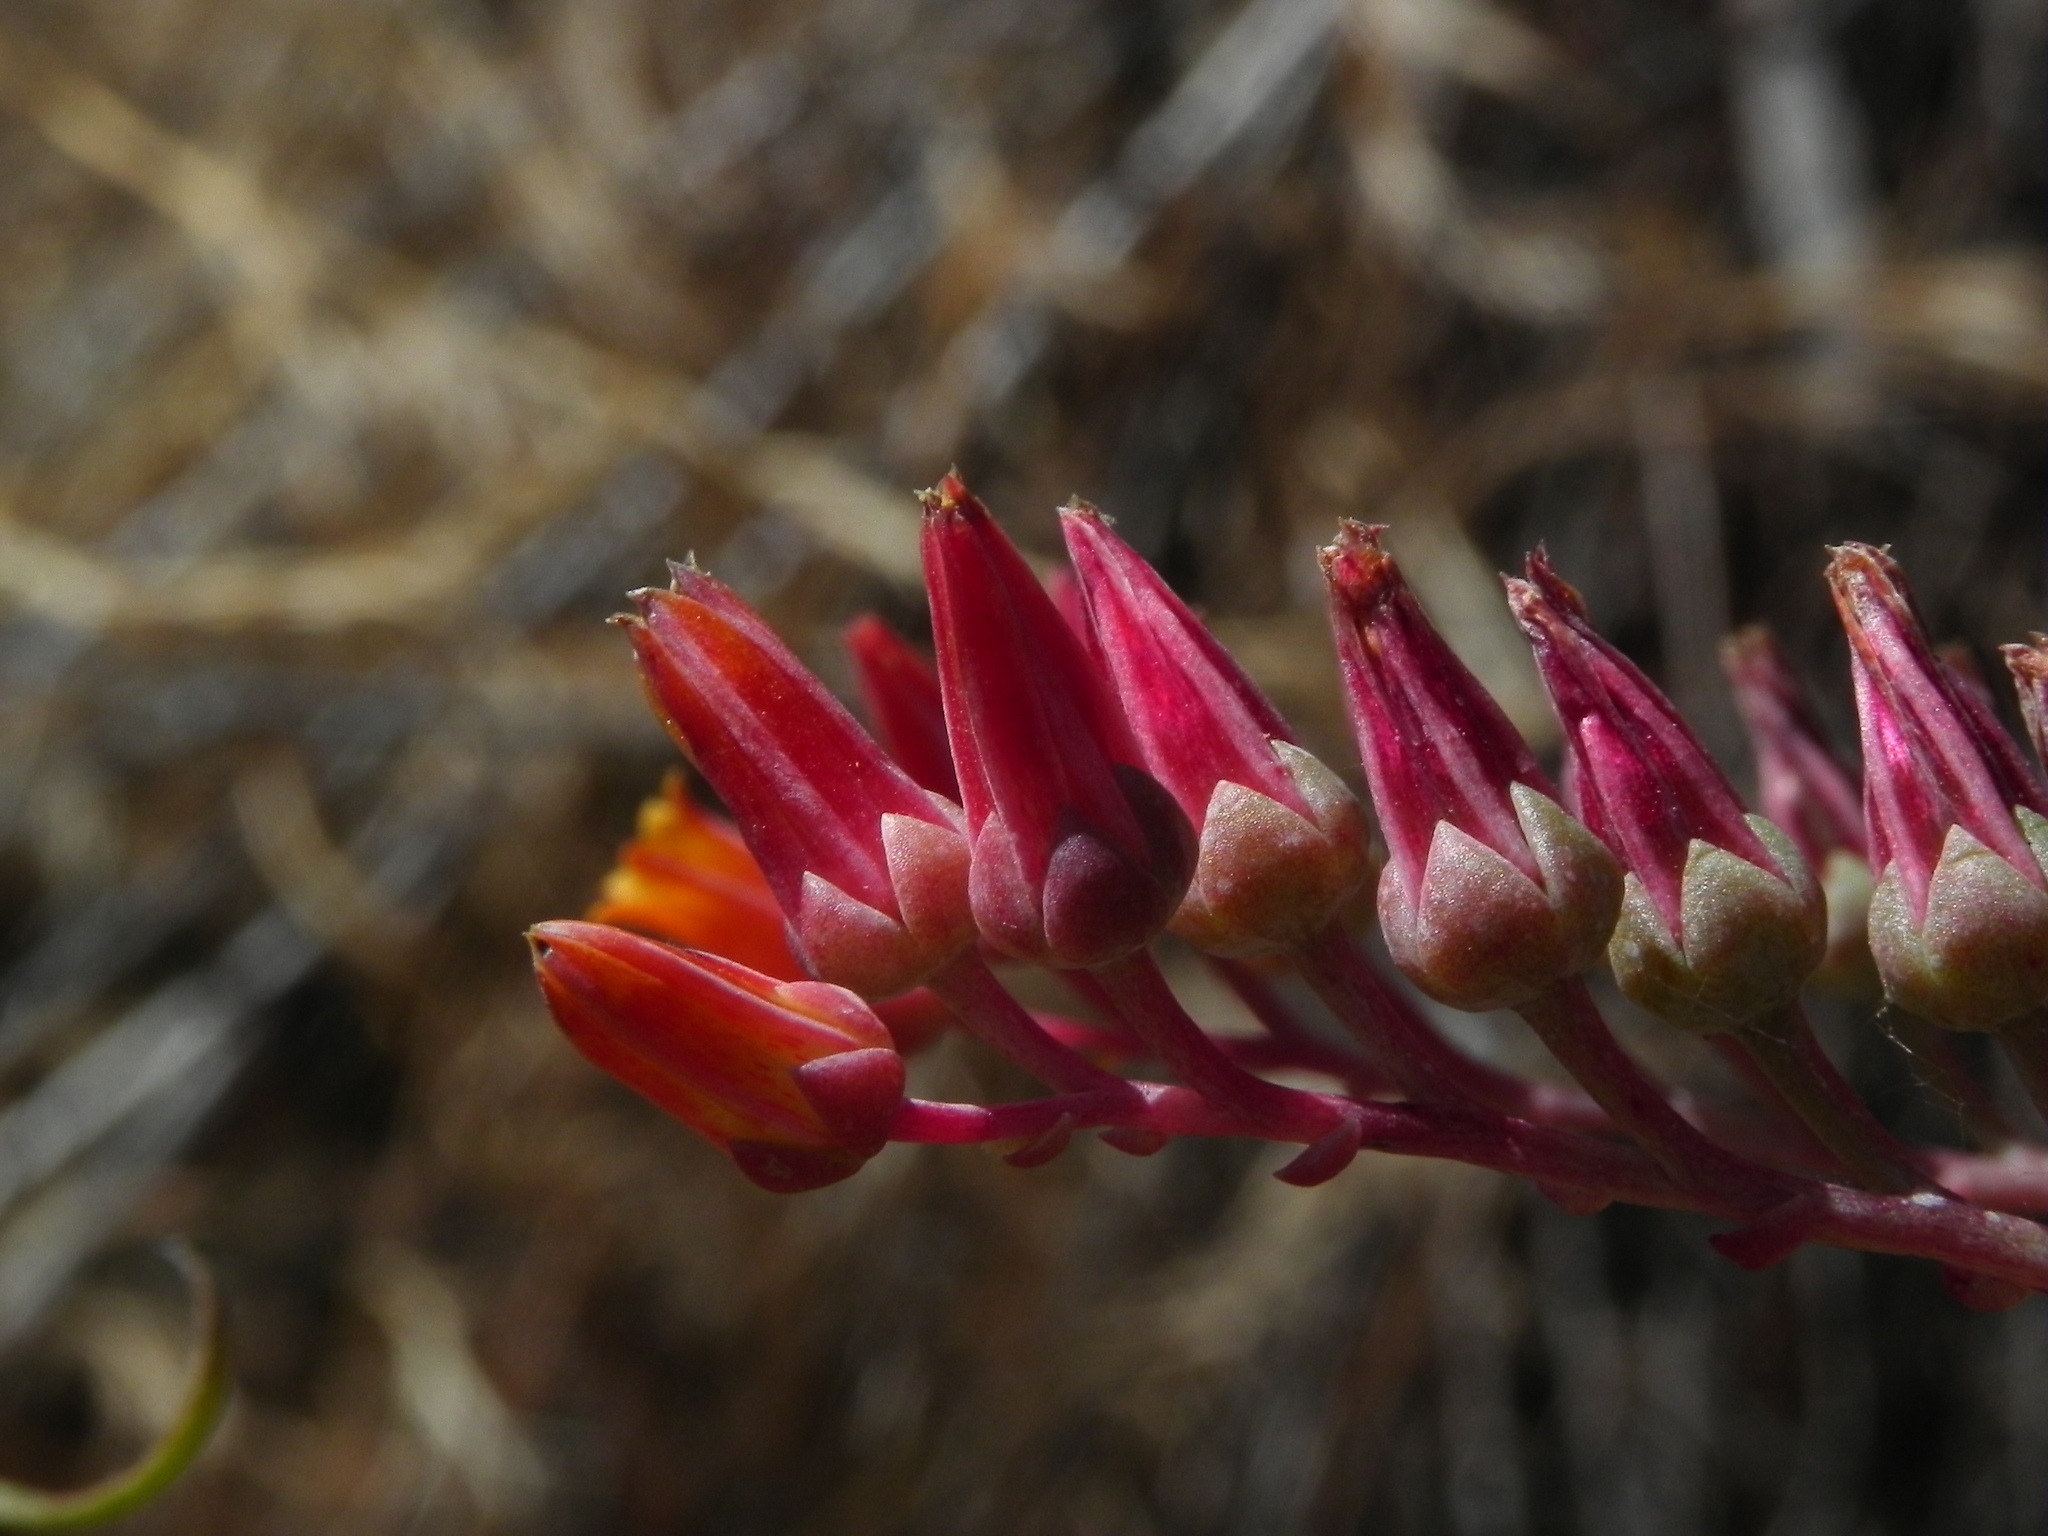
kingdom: Plantae
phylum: Tracheophyta
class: Magnoliopsida
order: Saxifragales
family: Crassulaceae
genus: Dudleya
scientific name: Dudleya lanceolata
